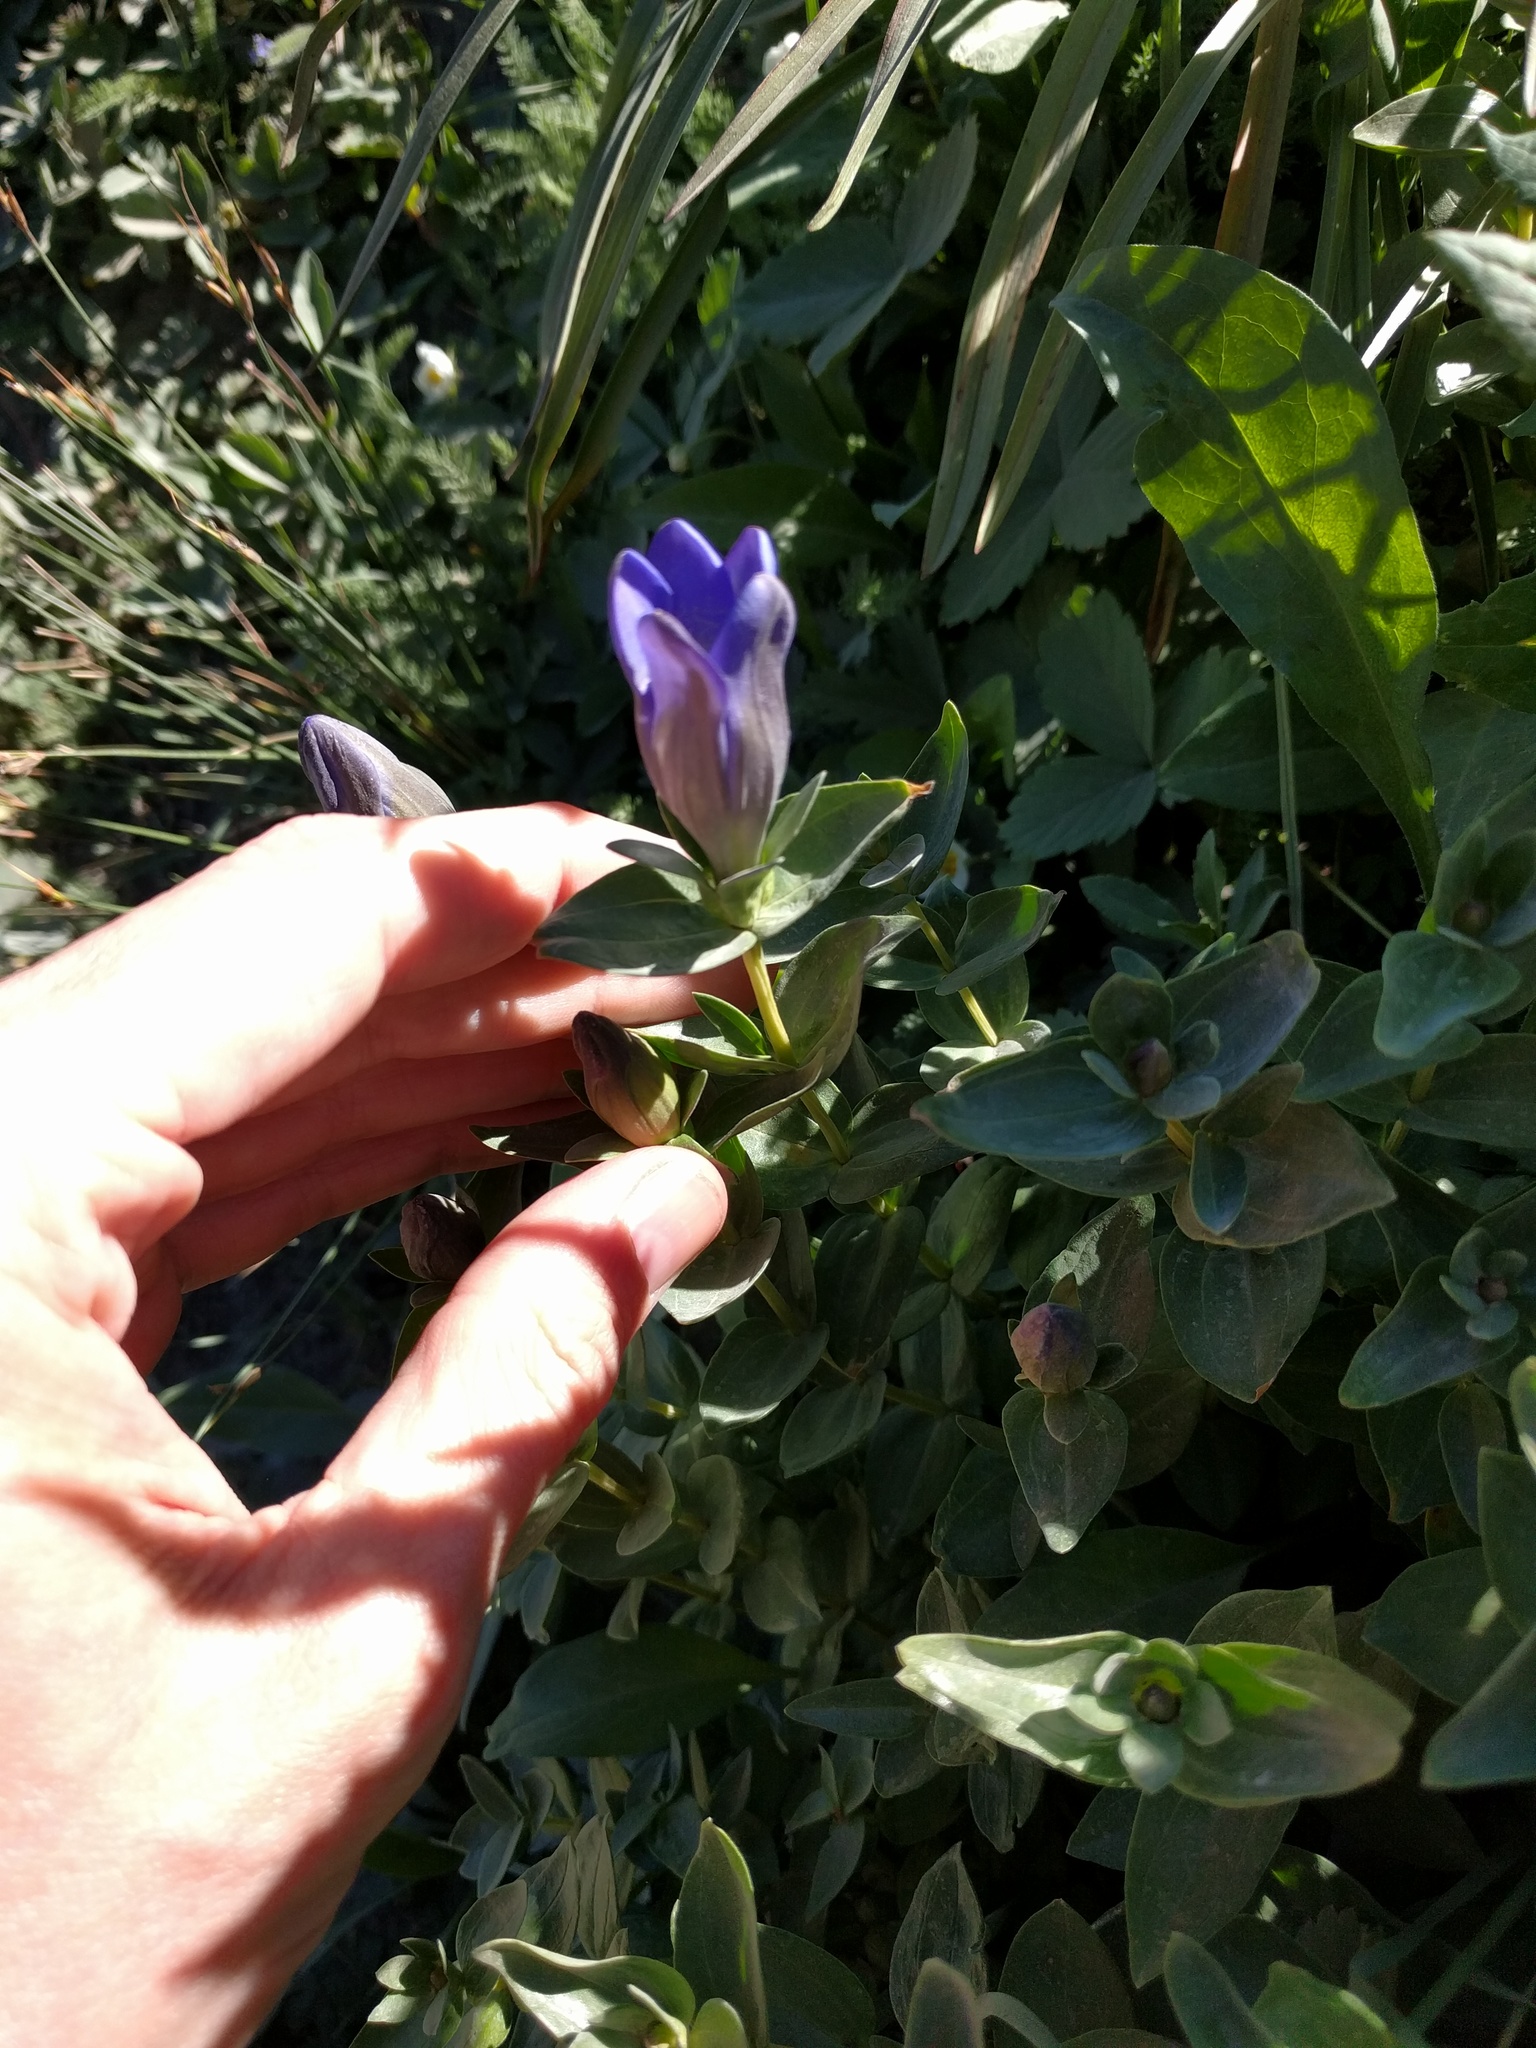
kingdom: Plantae
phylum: Tracheophyta
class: Magnoliopsida
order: Gentianales
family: Gentianaceae
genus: Gentiana
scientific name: Gentiana calycosa
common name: Rainier pleated gentian
